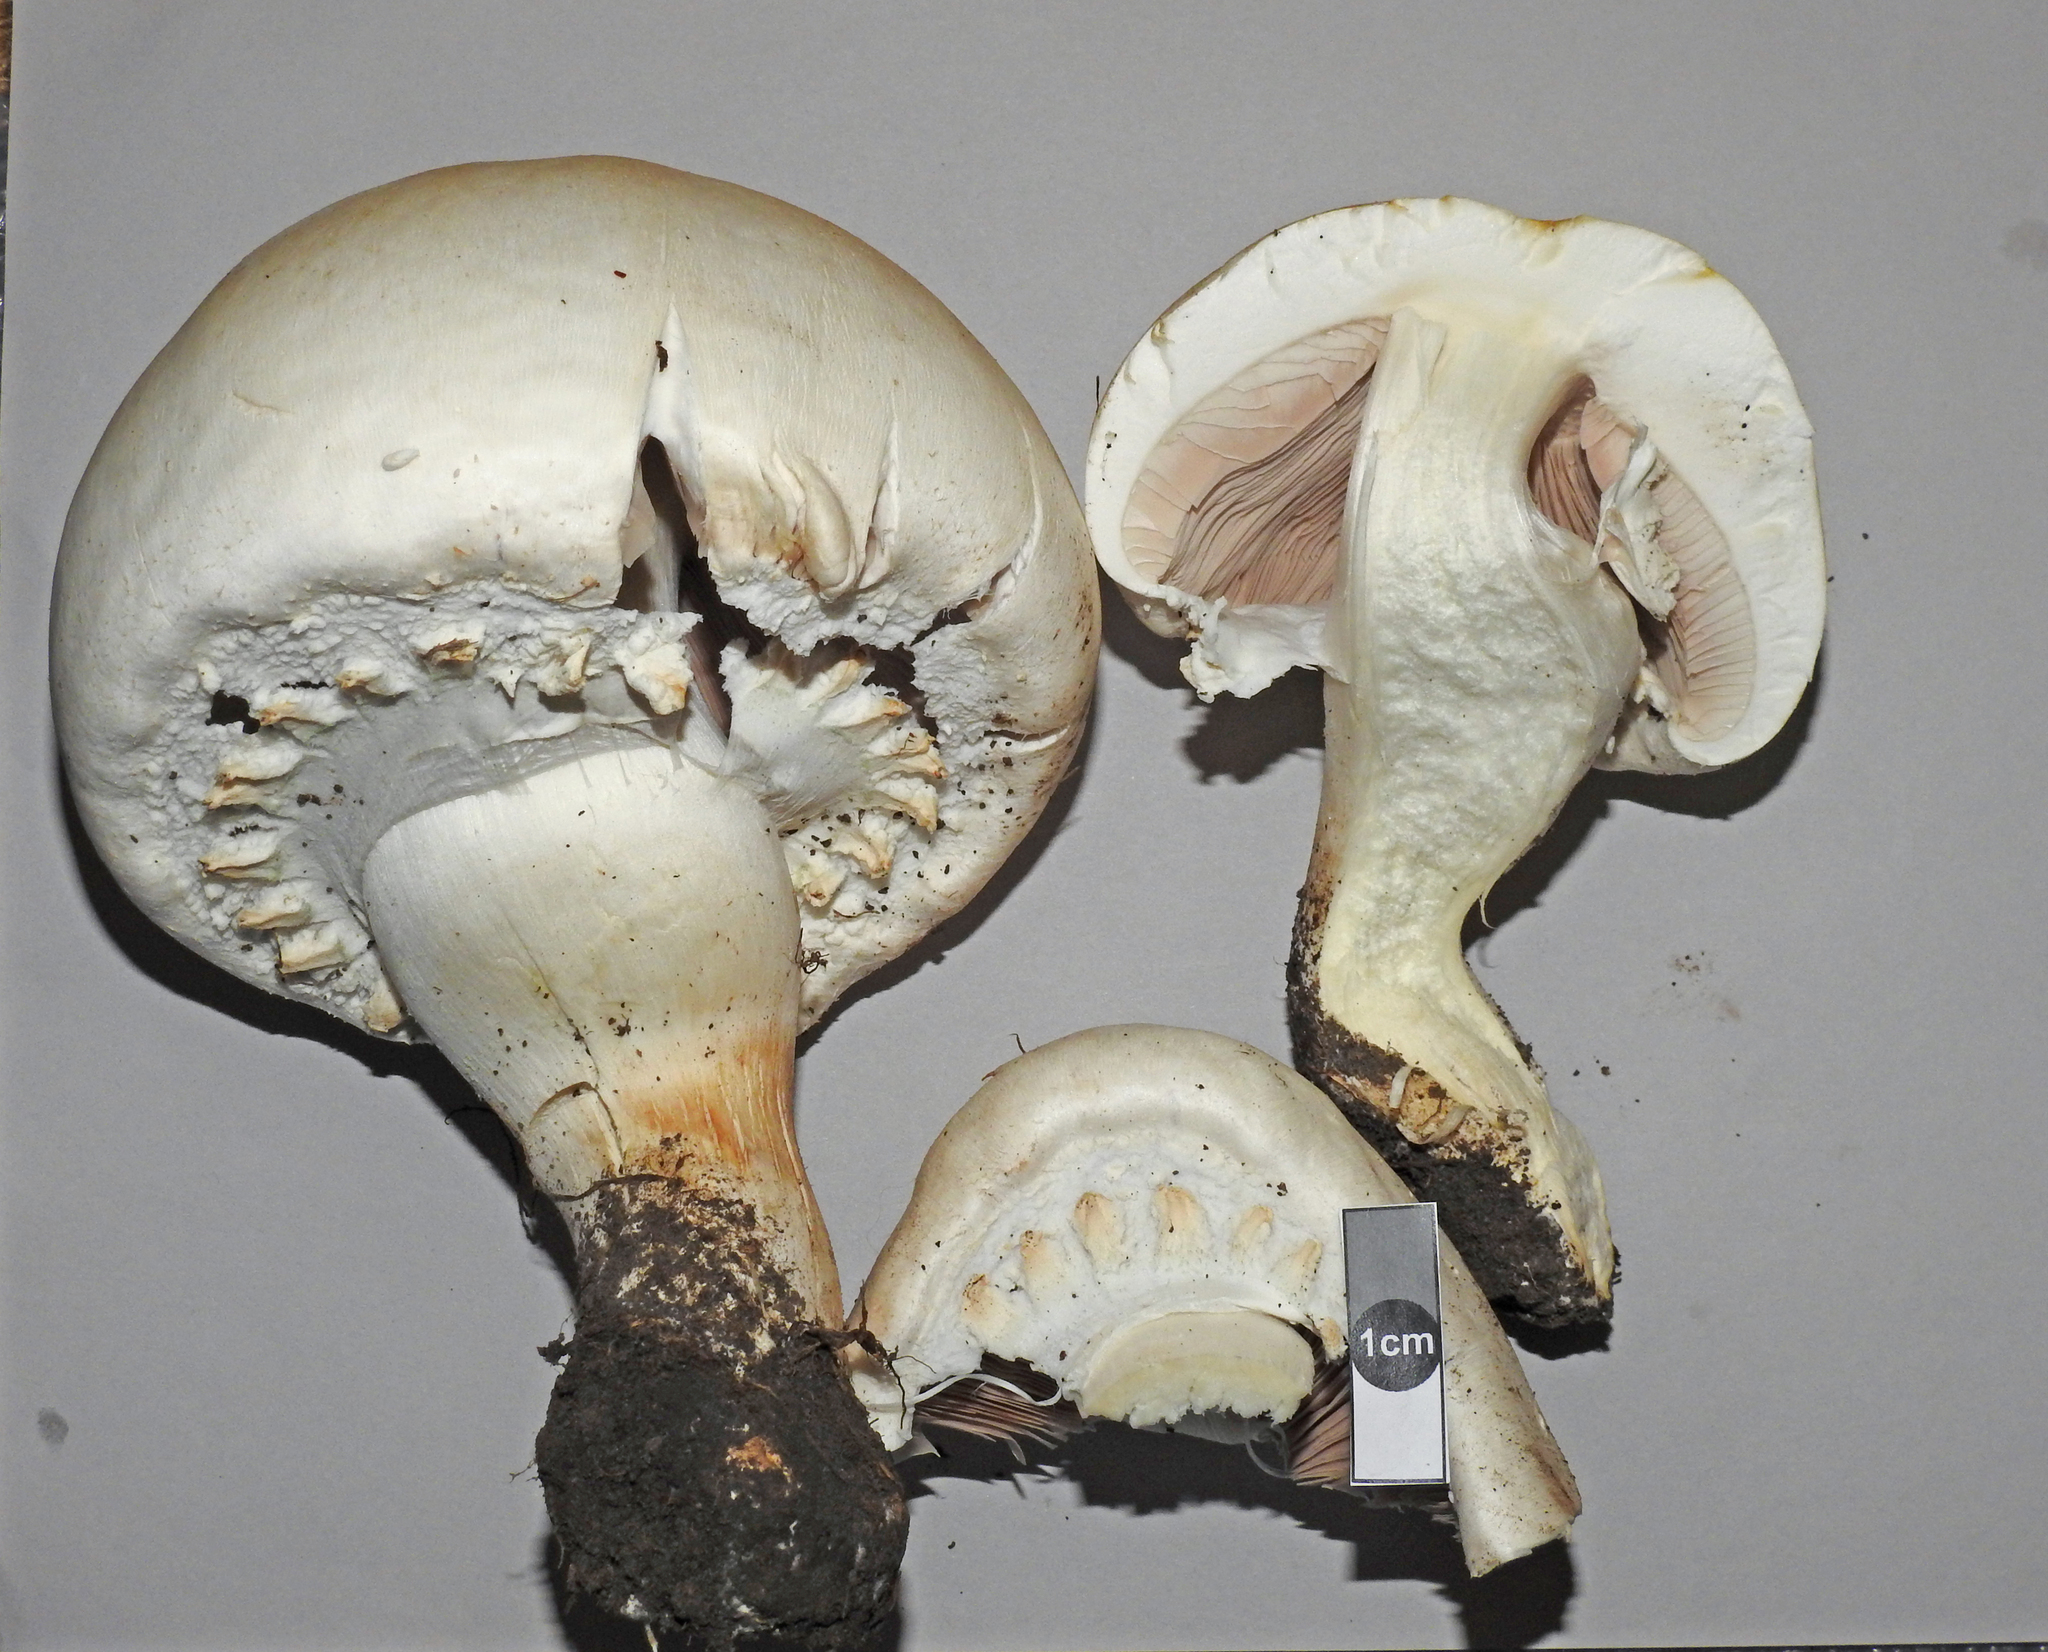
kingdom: Fungi
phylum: Basidiomycota
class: Agaricomycetes
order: Agaricales
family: Agaricaceae
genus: Agaricus
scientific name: Agaricus arvensis
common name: Horse mushroom
